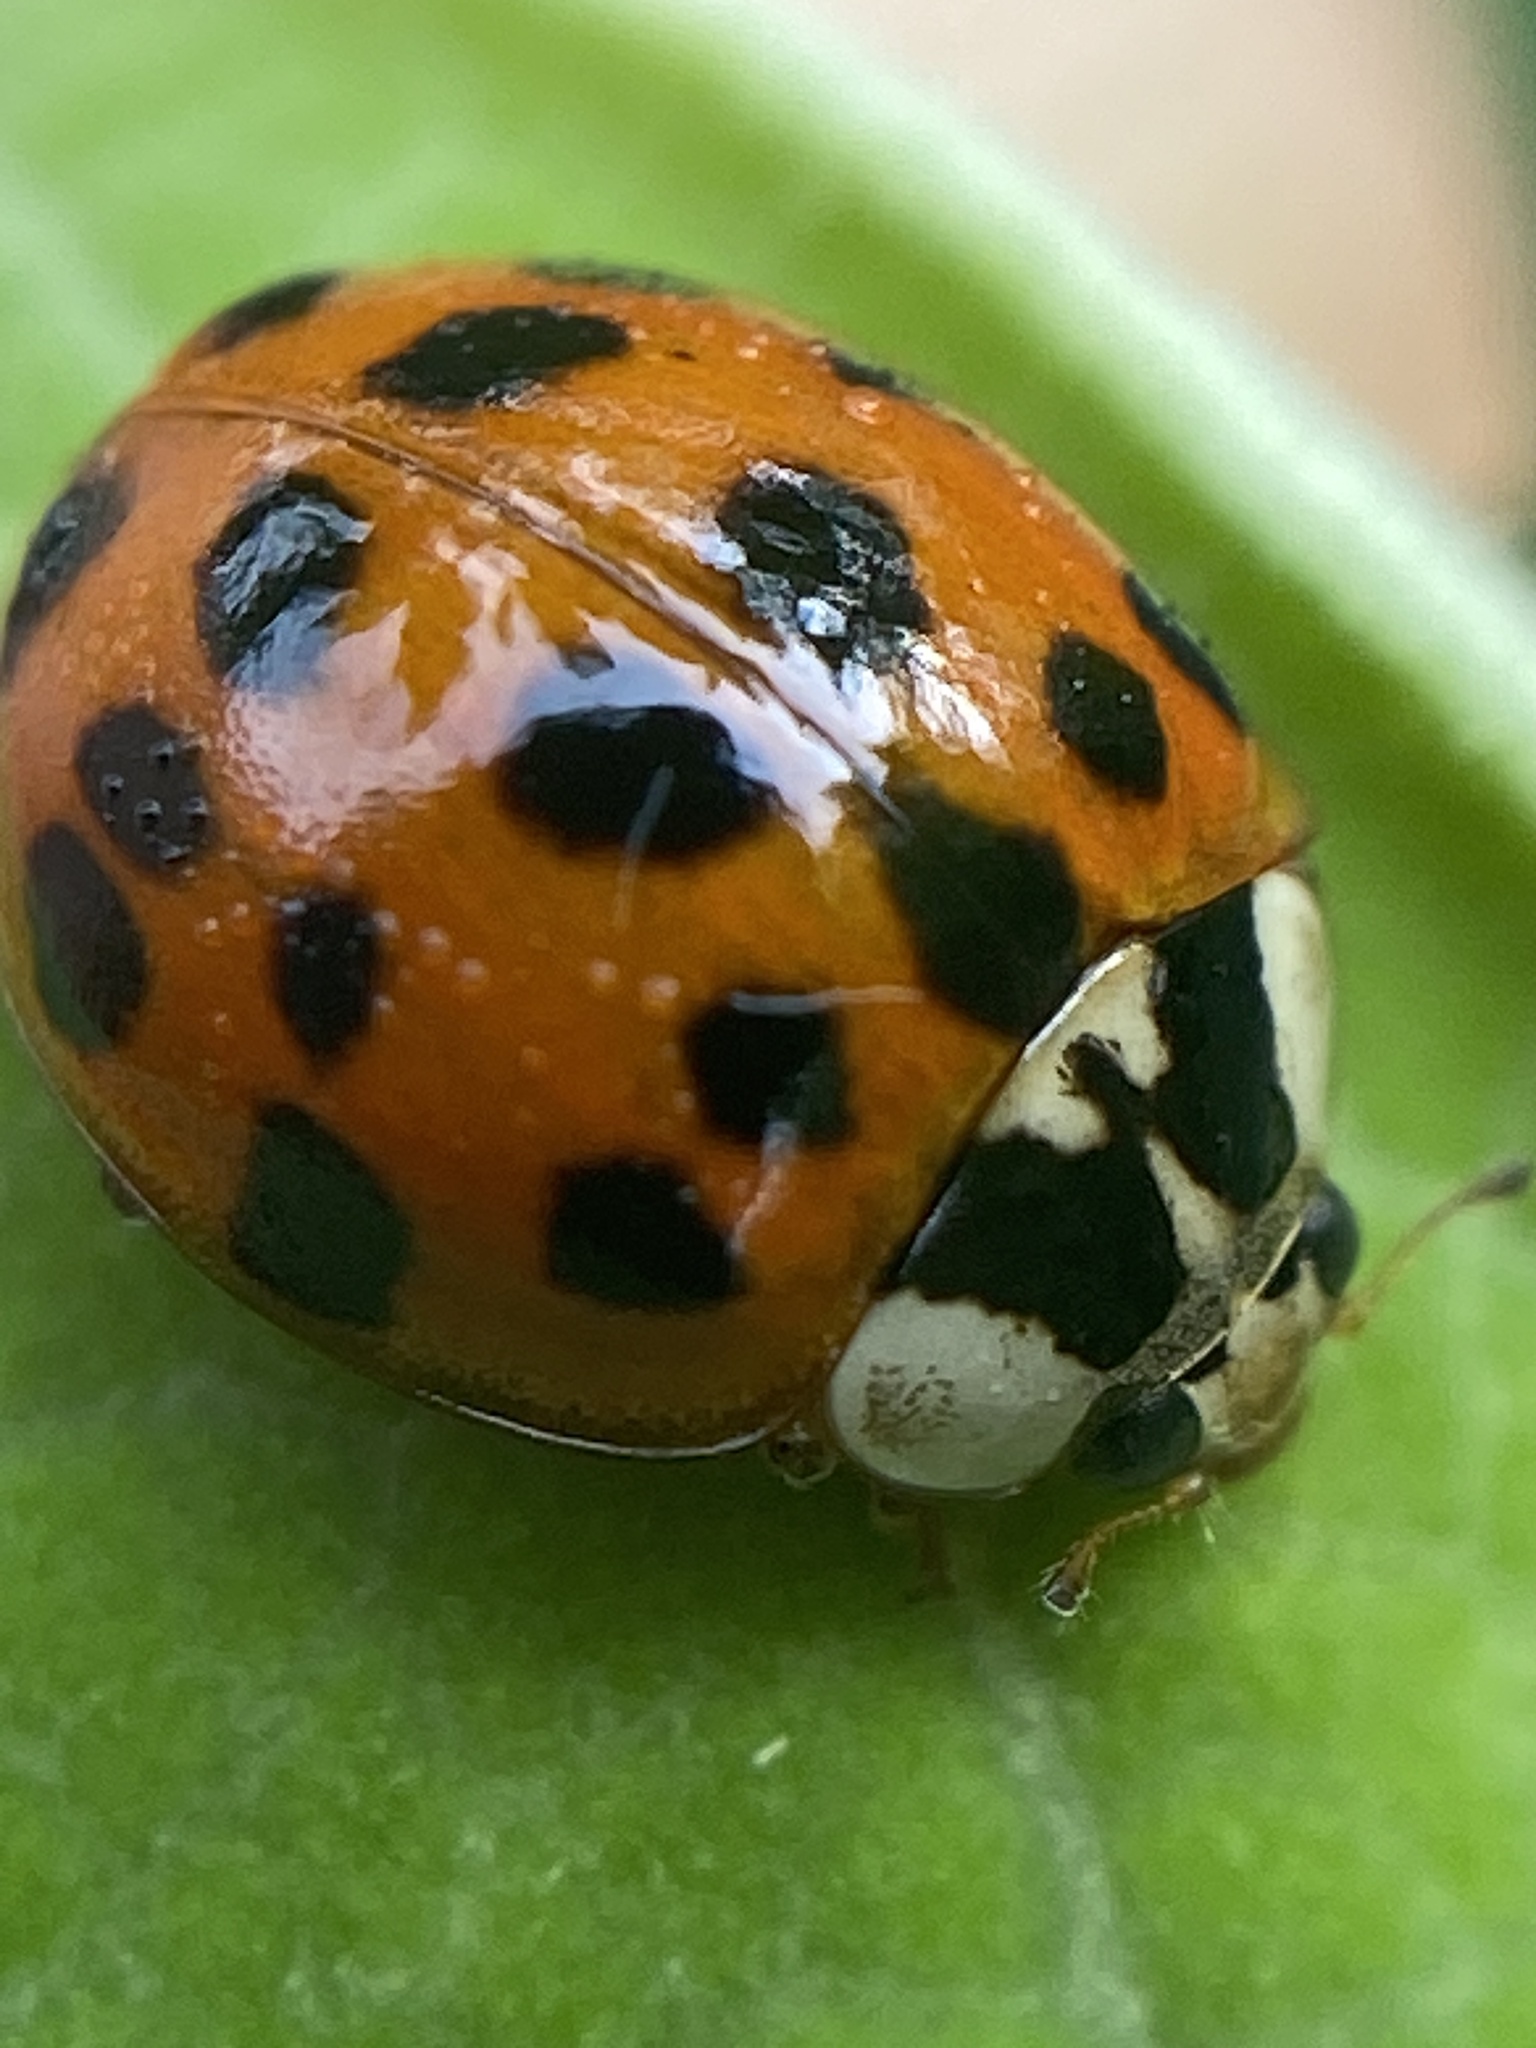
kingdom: Animalia
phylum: Arthropoda
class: Insecta
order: Coleoptera
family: Coccinellidae
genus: Harmonia
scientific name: Harmonia axyridis
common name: Harlequin ladybird
